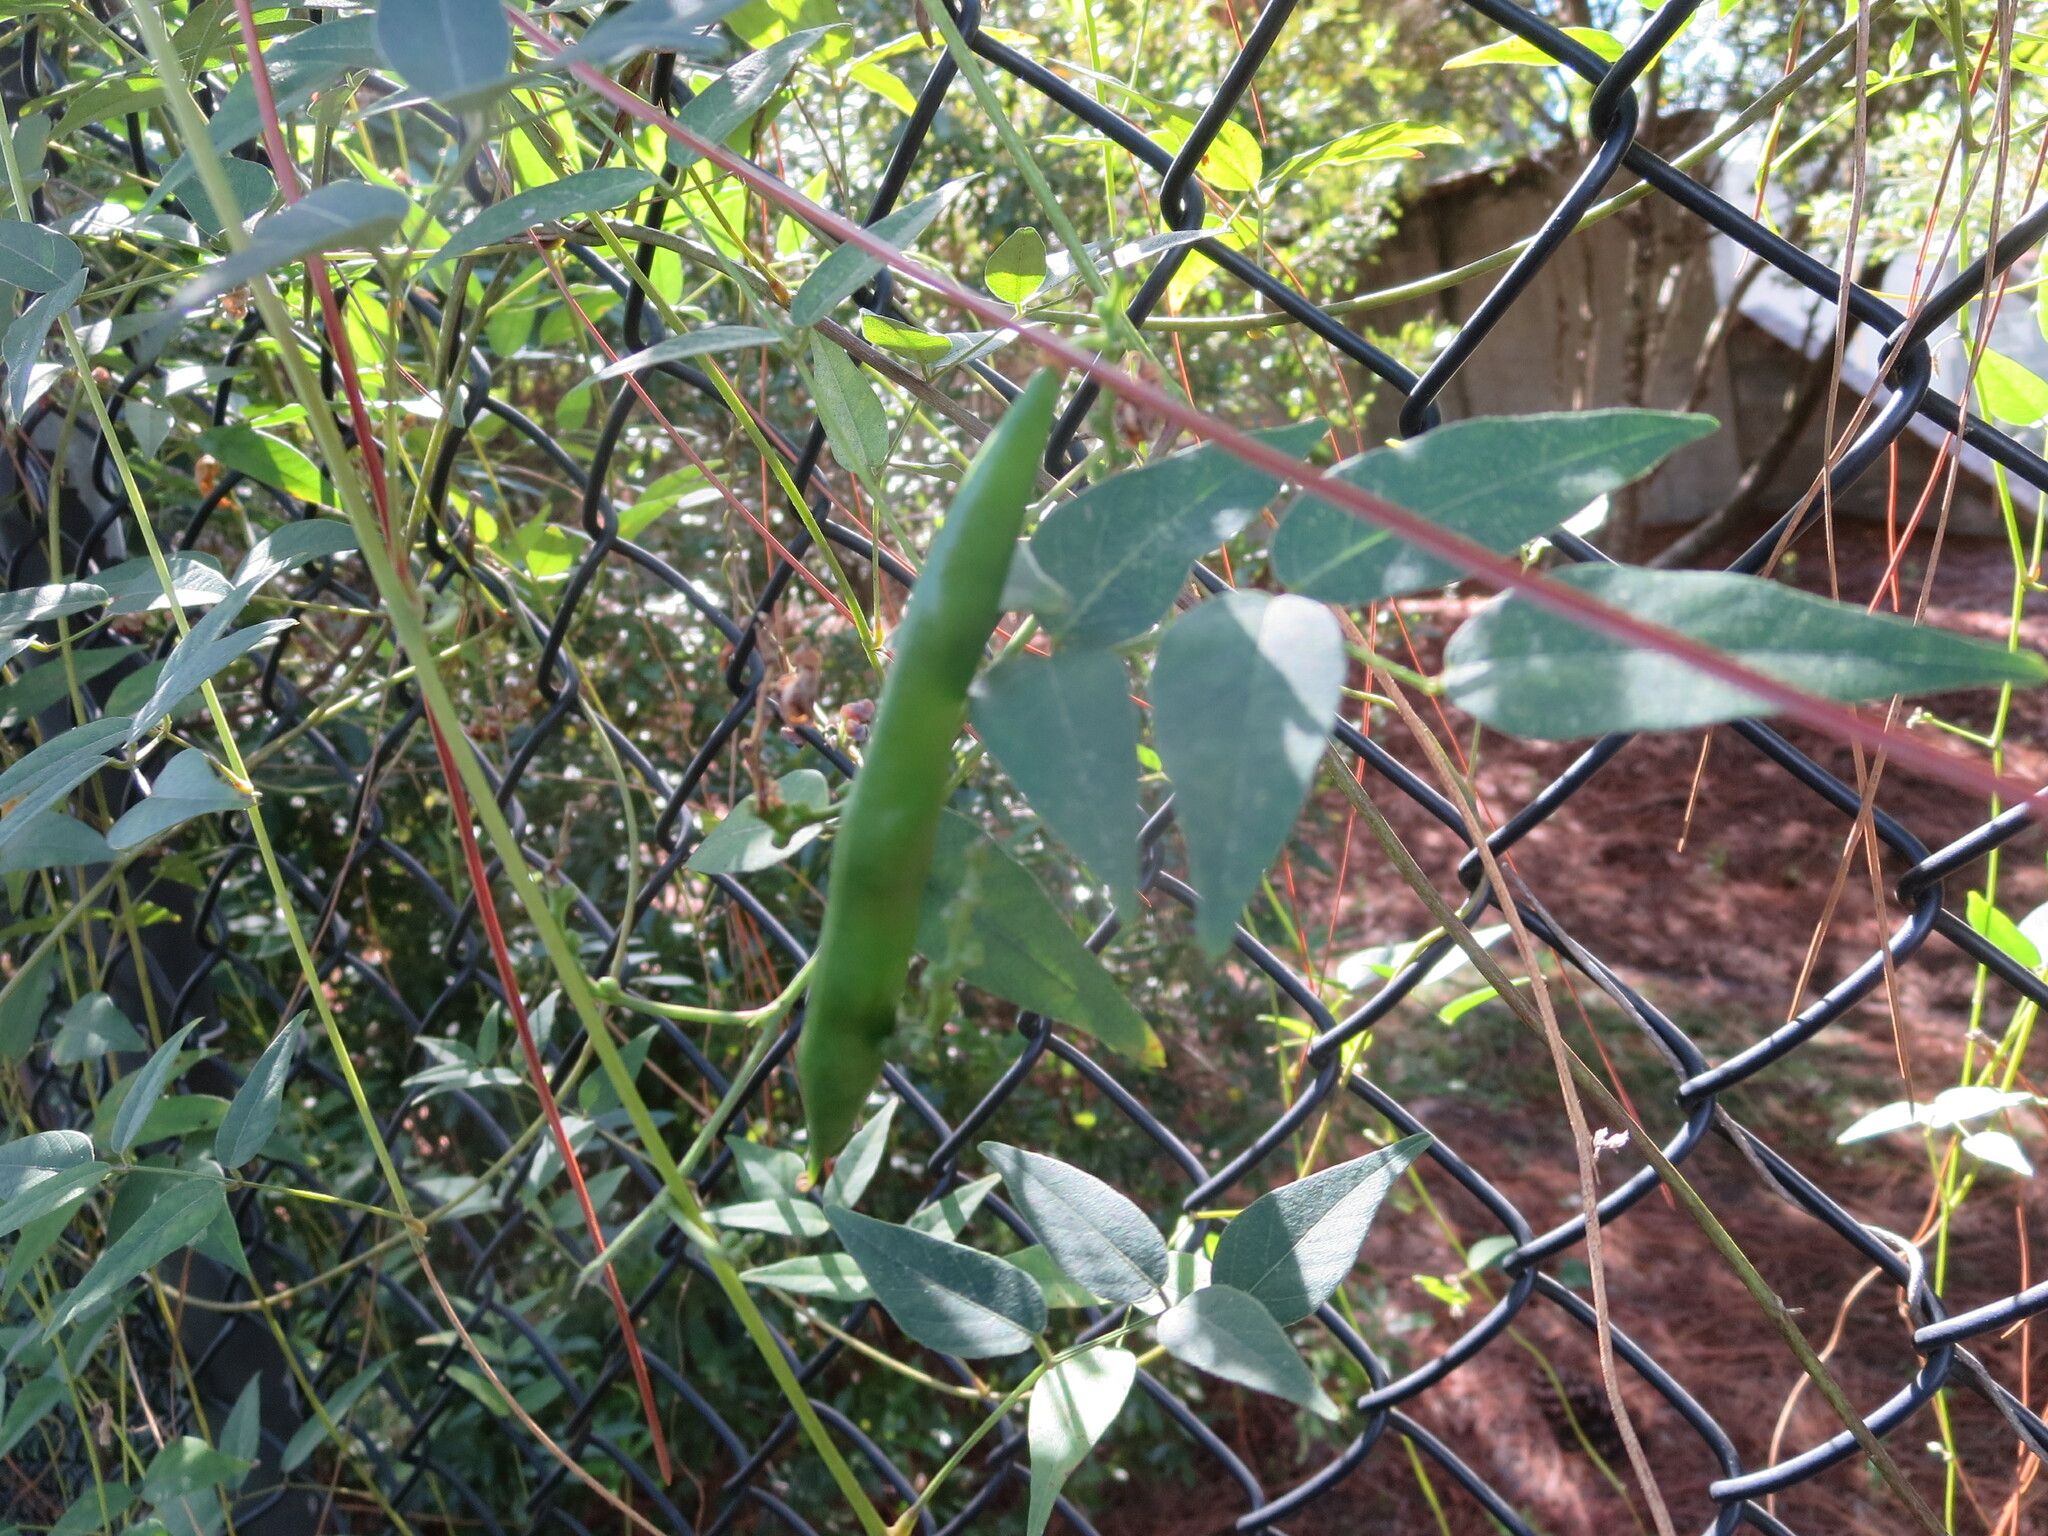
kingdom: Plantae
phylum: Tracheophyta
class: Magnoliopsida
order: Fabales
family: Fabaceae
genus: Apios
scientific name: Apios americana
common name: American potato-bean
